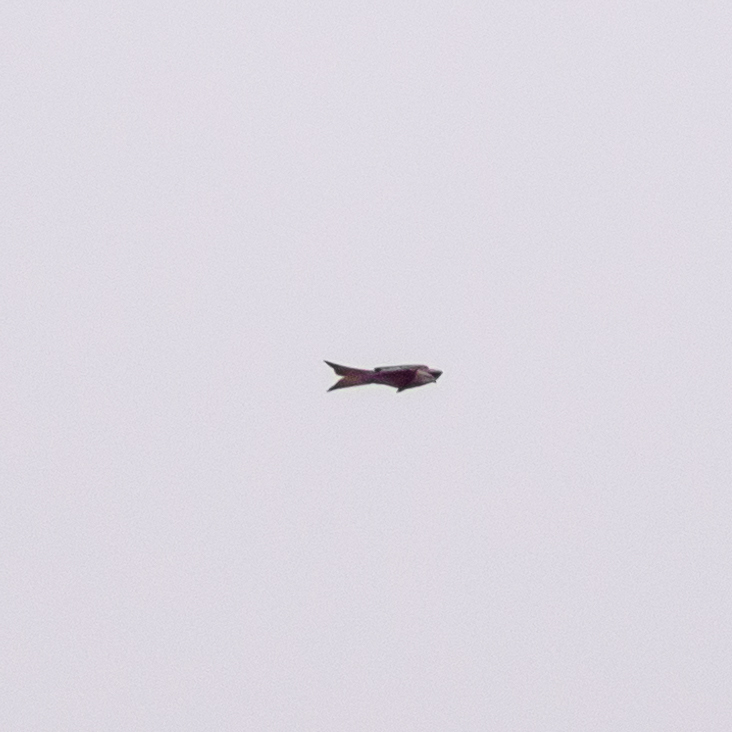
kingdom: Animalia
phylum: Chordata
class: Aves
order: Accipitriformes
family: Accipitridae
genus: Milvus
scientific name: Milvus milvus
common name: Red kite
